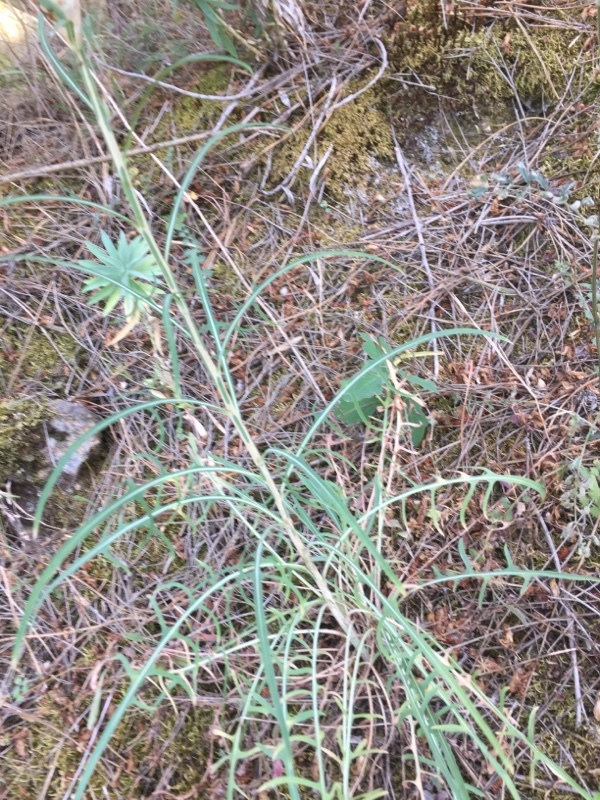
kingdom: Plantae
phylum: Tracheophyta
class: Magnoliopsida
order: Asterales
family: Asteraceae
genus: Lactuca
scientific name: Lactuca viminea
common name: Pliant lettuce
